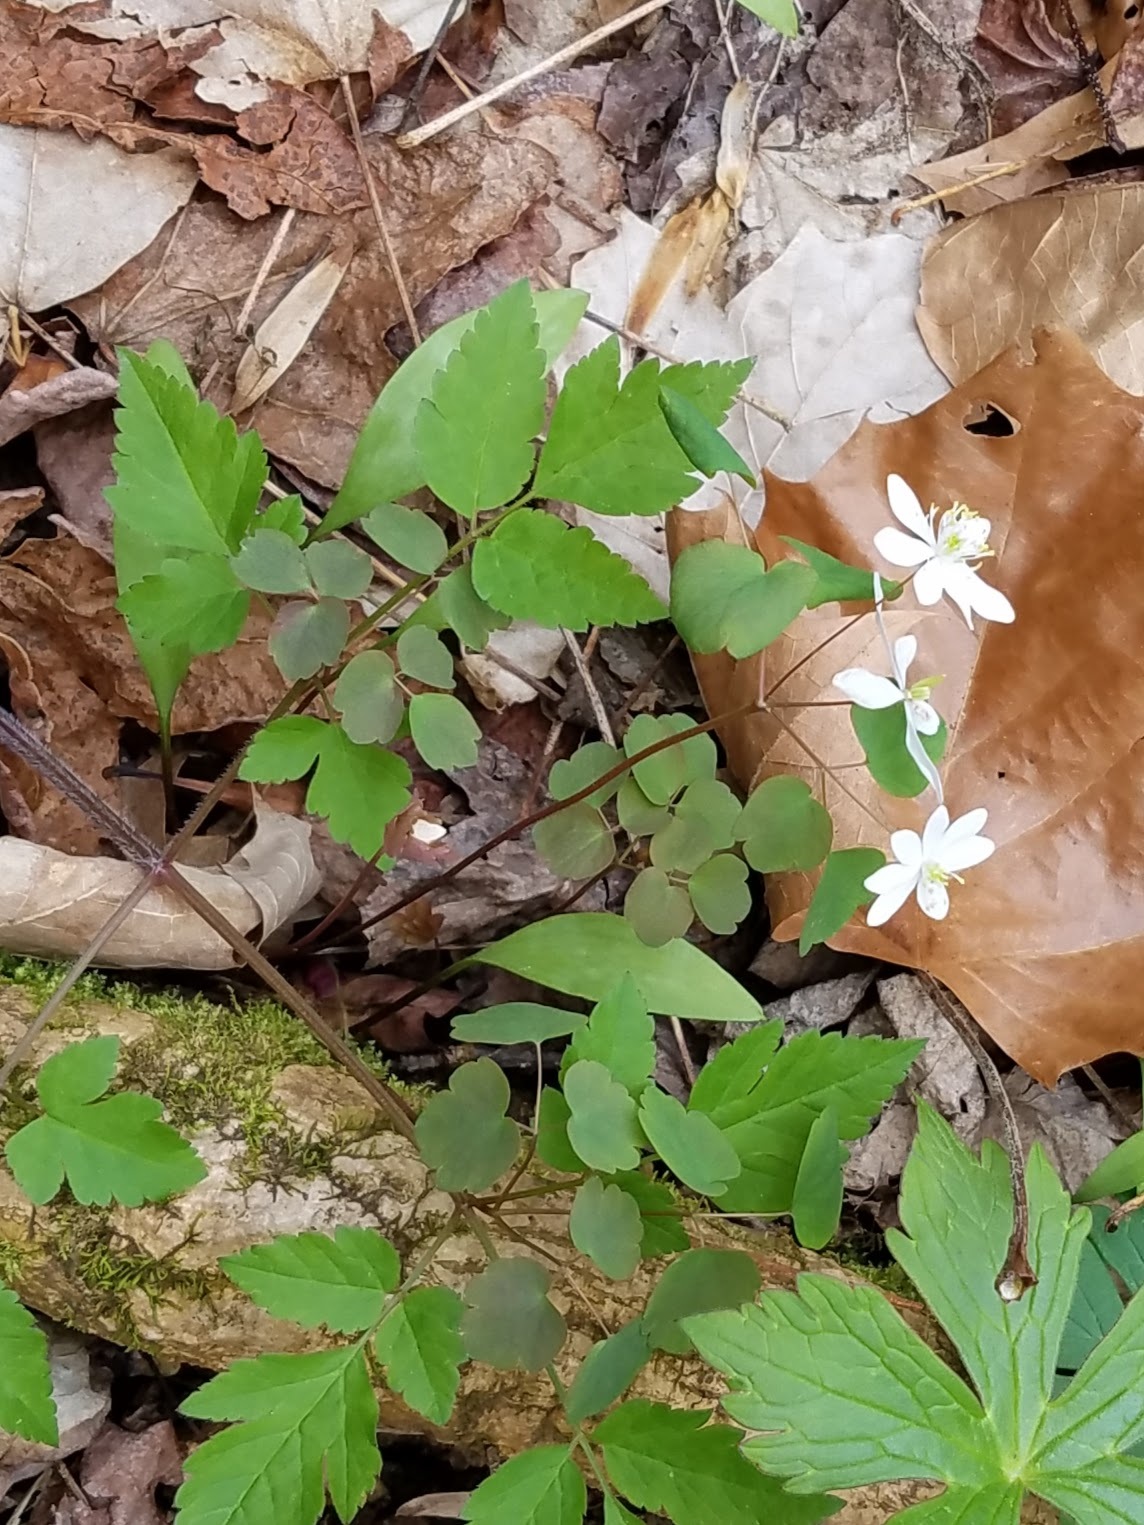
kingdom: Plantae
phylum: Tracheophyta
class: Magnoliopsida
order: Ranunculales
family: Ranunculaceae
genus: Thalictrum
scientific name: Thalictrum thalictroides
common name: Rue-anemone
